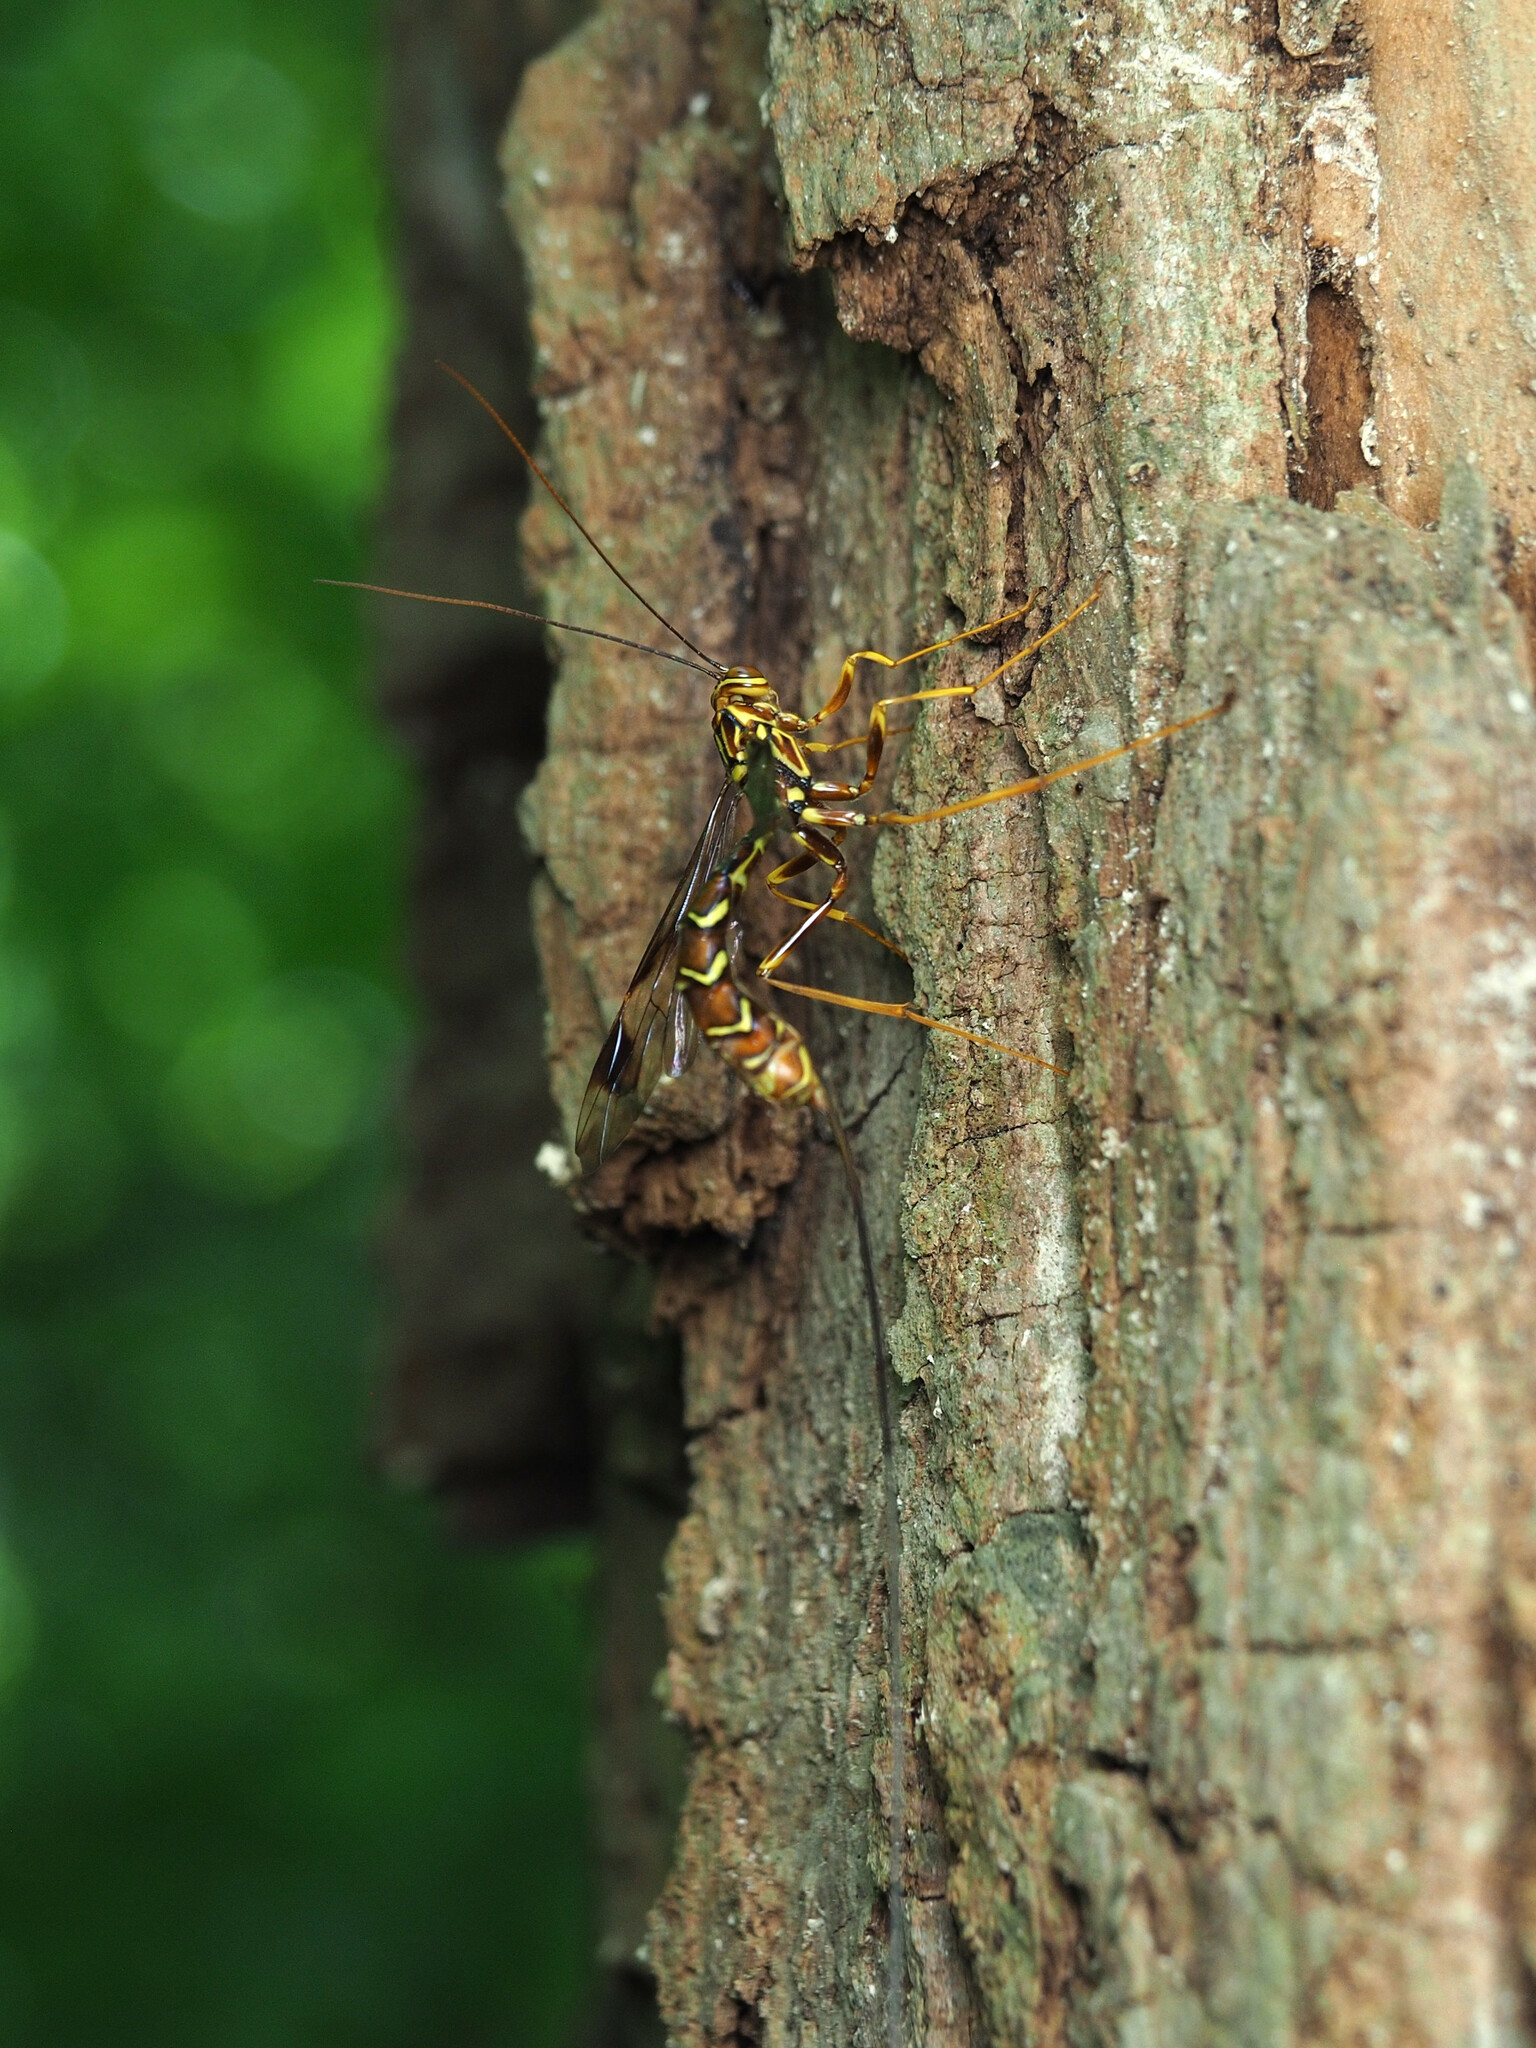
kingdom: Animalia
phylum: Arthropoda
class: Insecta
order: Hymenoptera
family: Ichneumonidae
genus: Megarhyssa
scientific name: Megarhyssa macrura
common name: Long-tailed giant ichneumonid wasp
